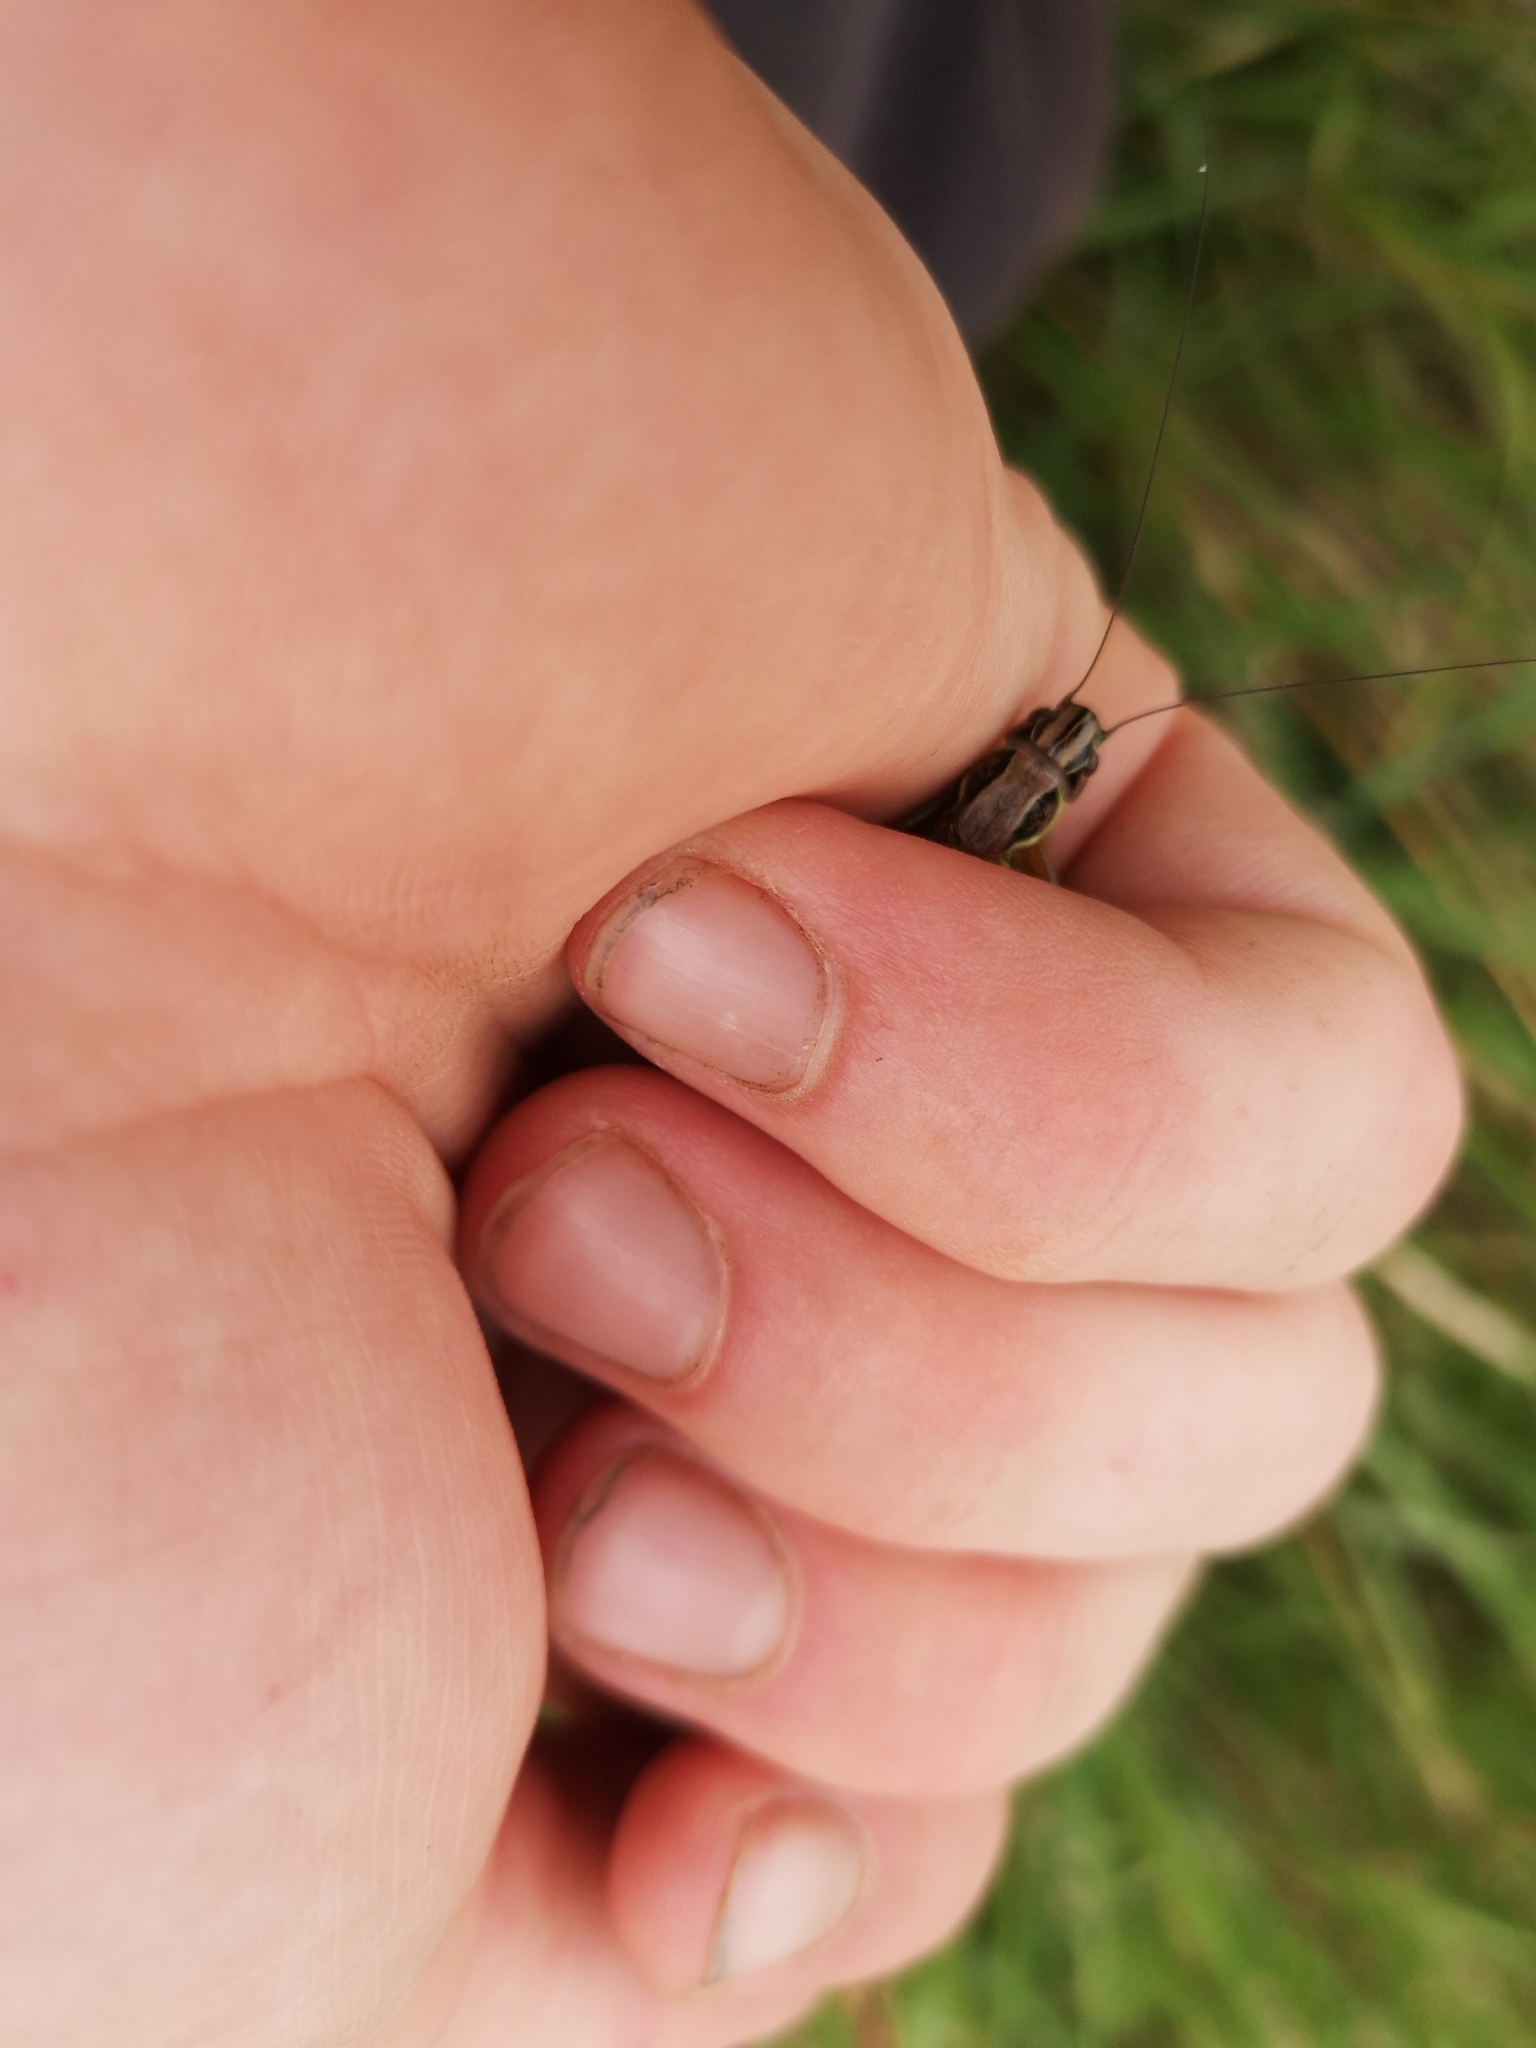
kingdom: Animalia
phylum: Arthropoda
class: Insecta
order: Orthoptera
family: Tettigoniidae
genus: Roeseliana
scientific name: Roeseliana roeselii
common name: Roesel's bush cricket
